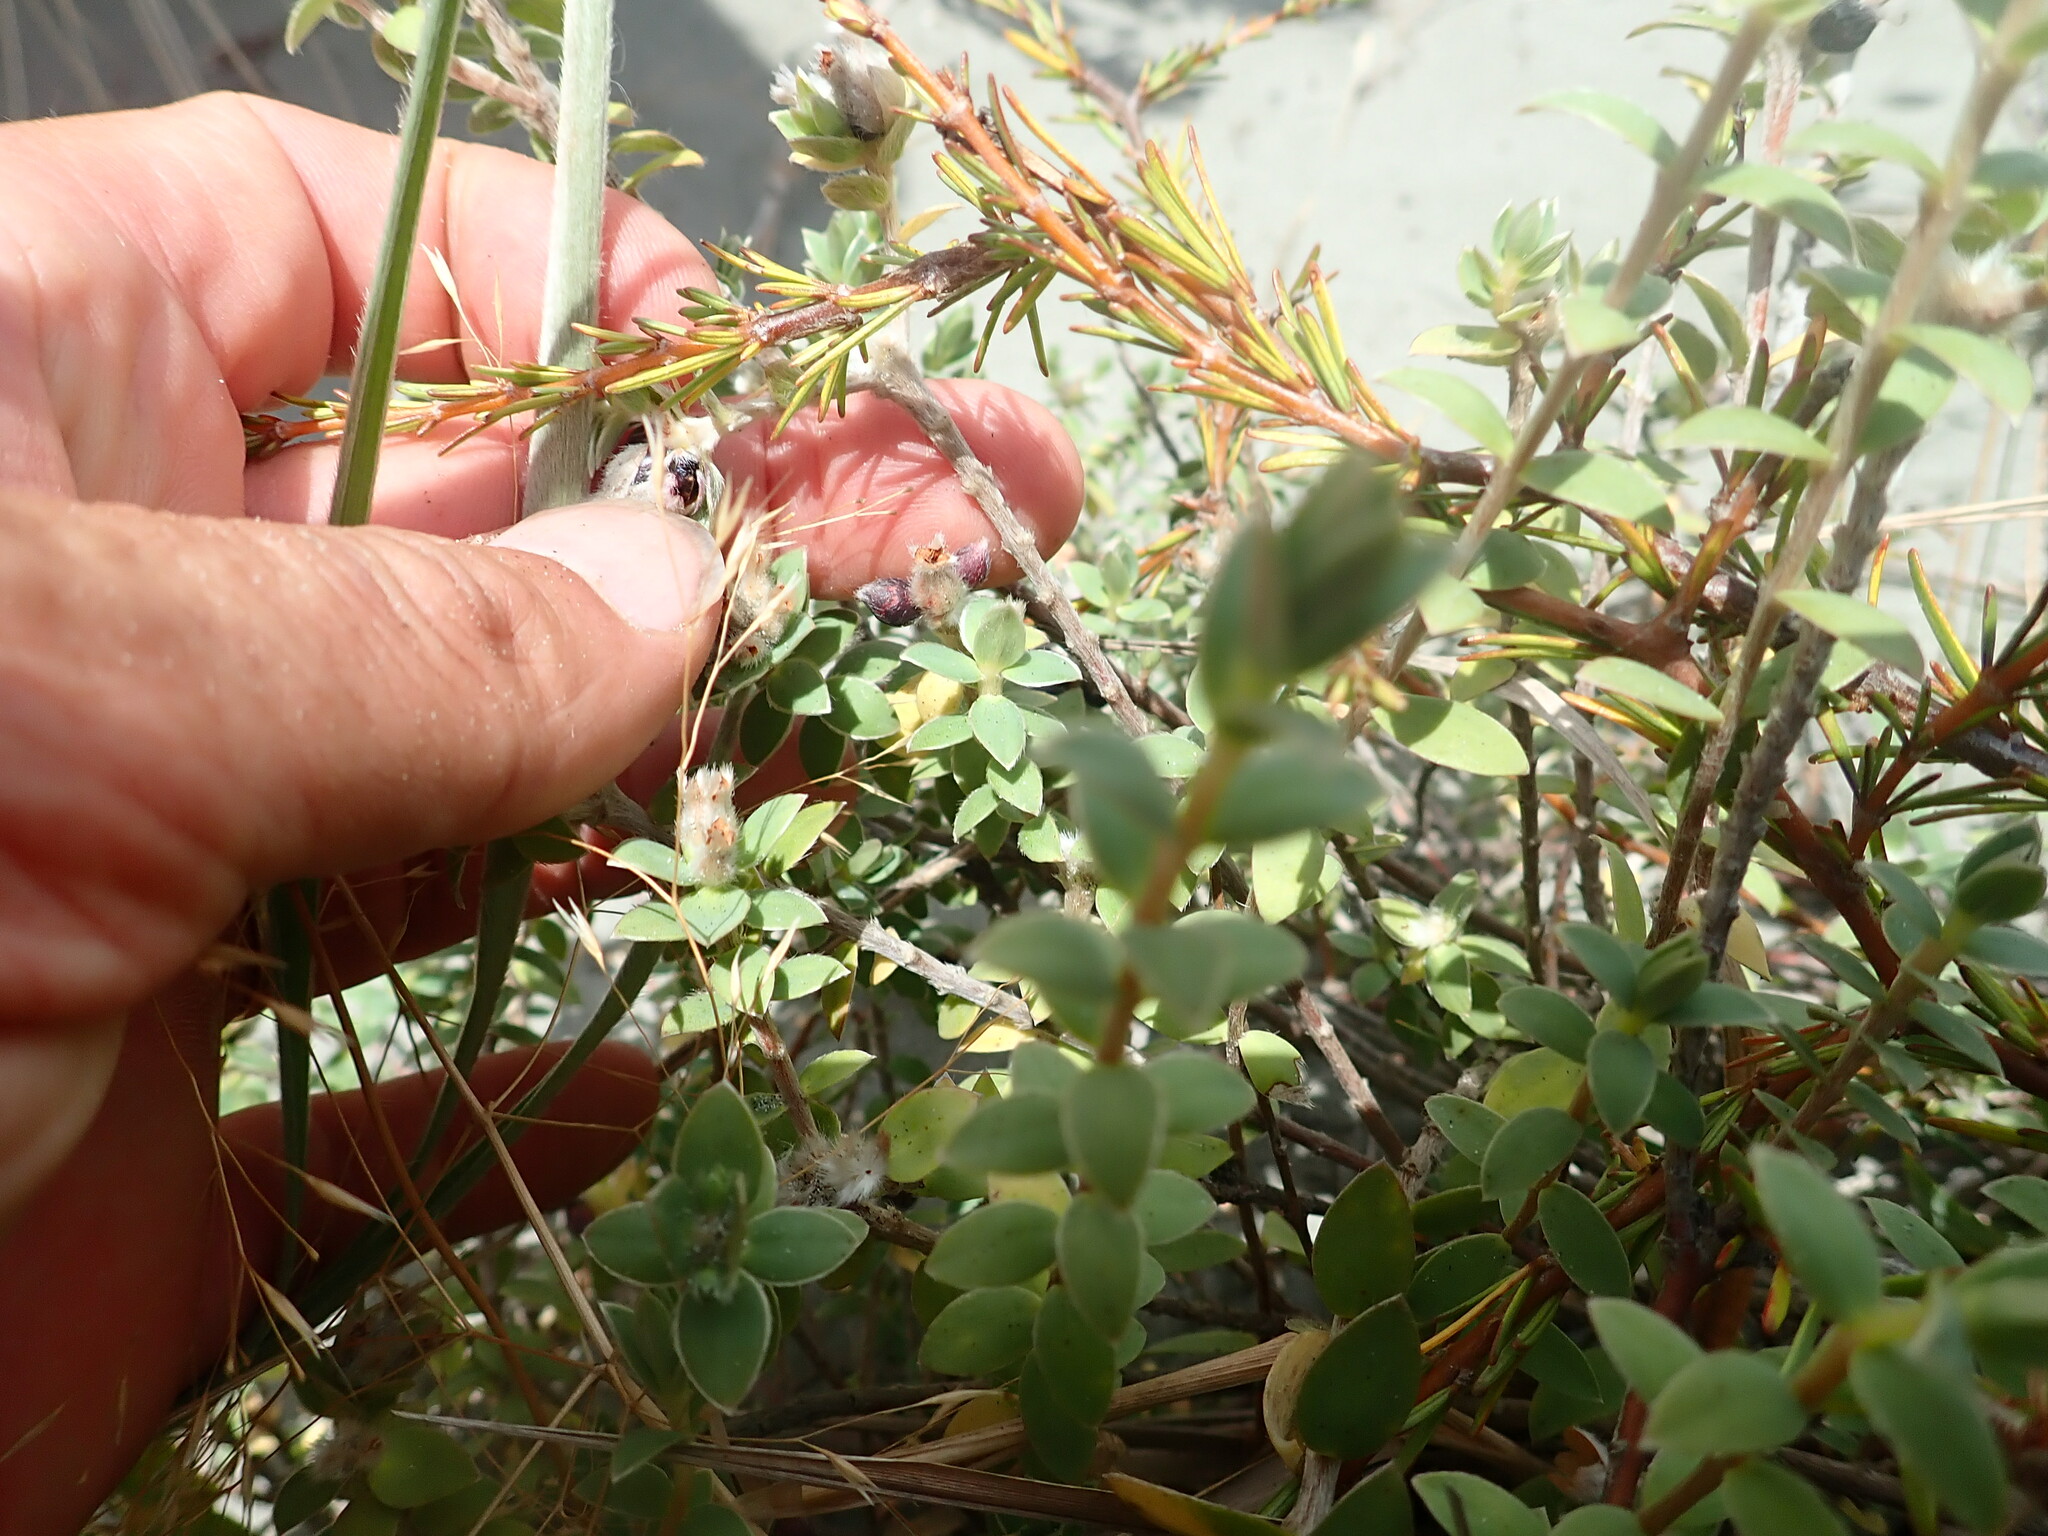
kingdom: Plantae
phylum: Tracheophyta
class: Magnoliopsida
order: Malvales
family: Thymelaeaceae
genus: Pimelea
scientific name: Pimelea villosa
